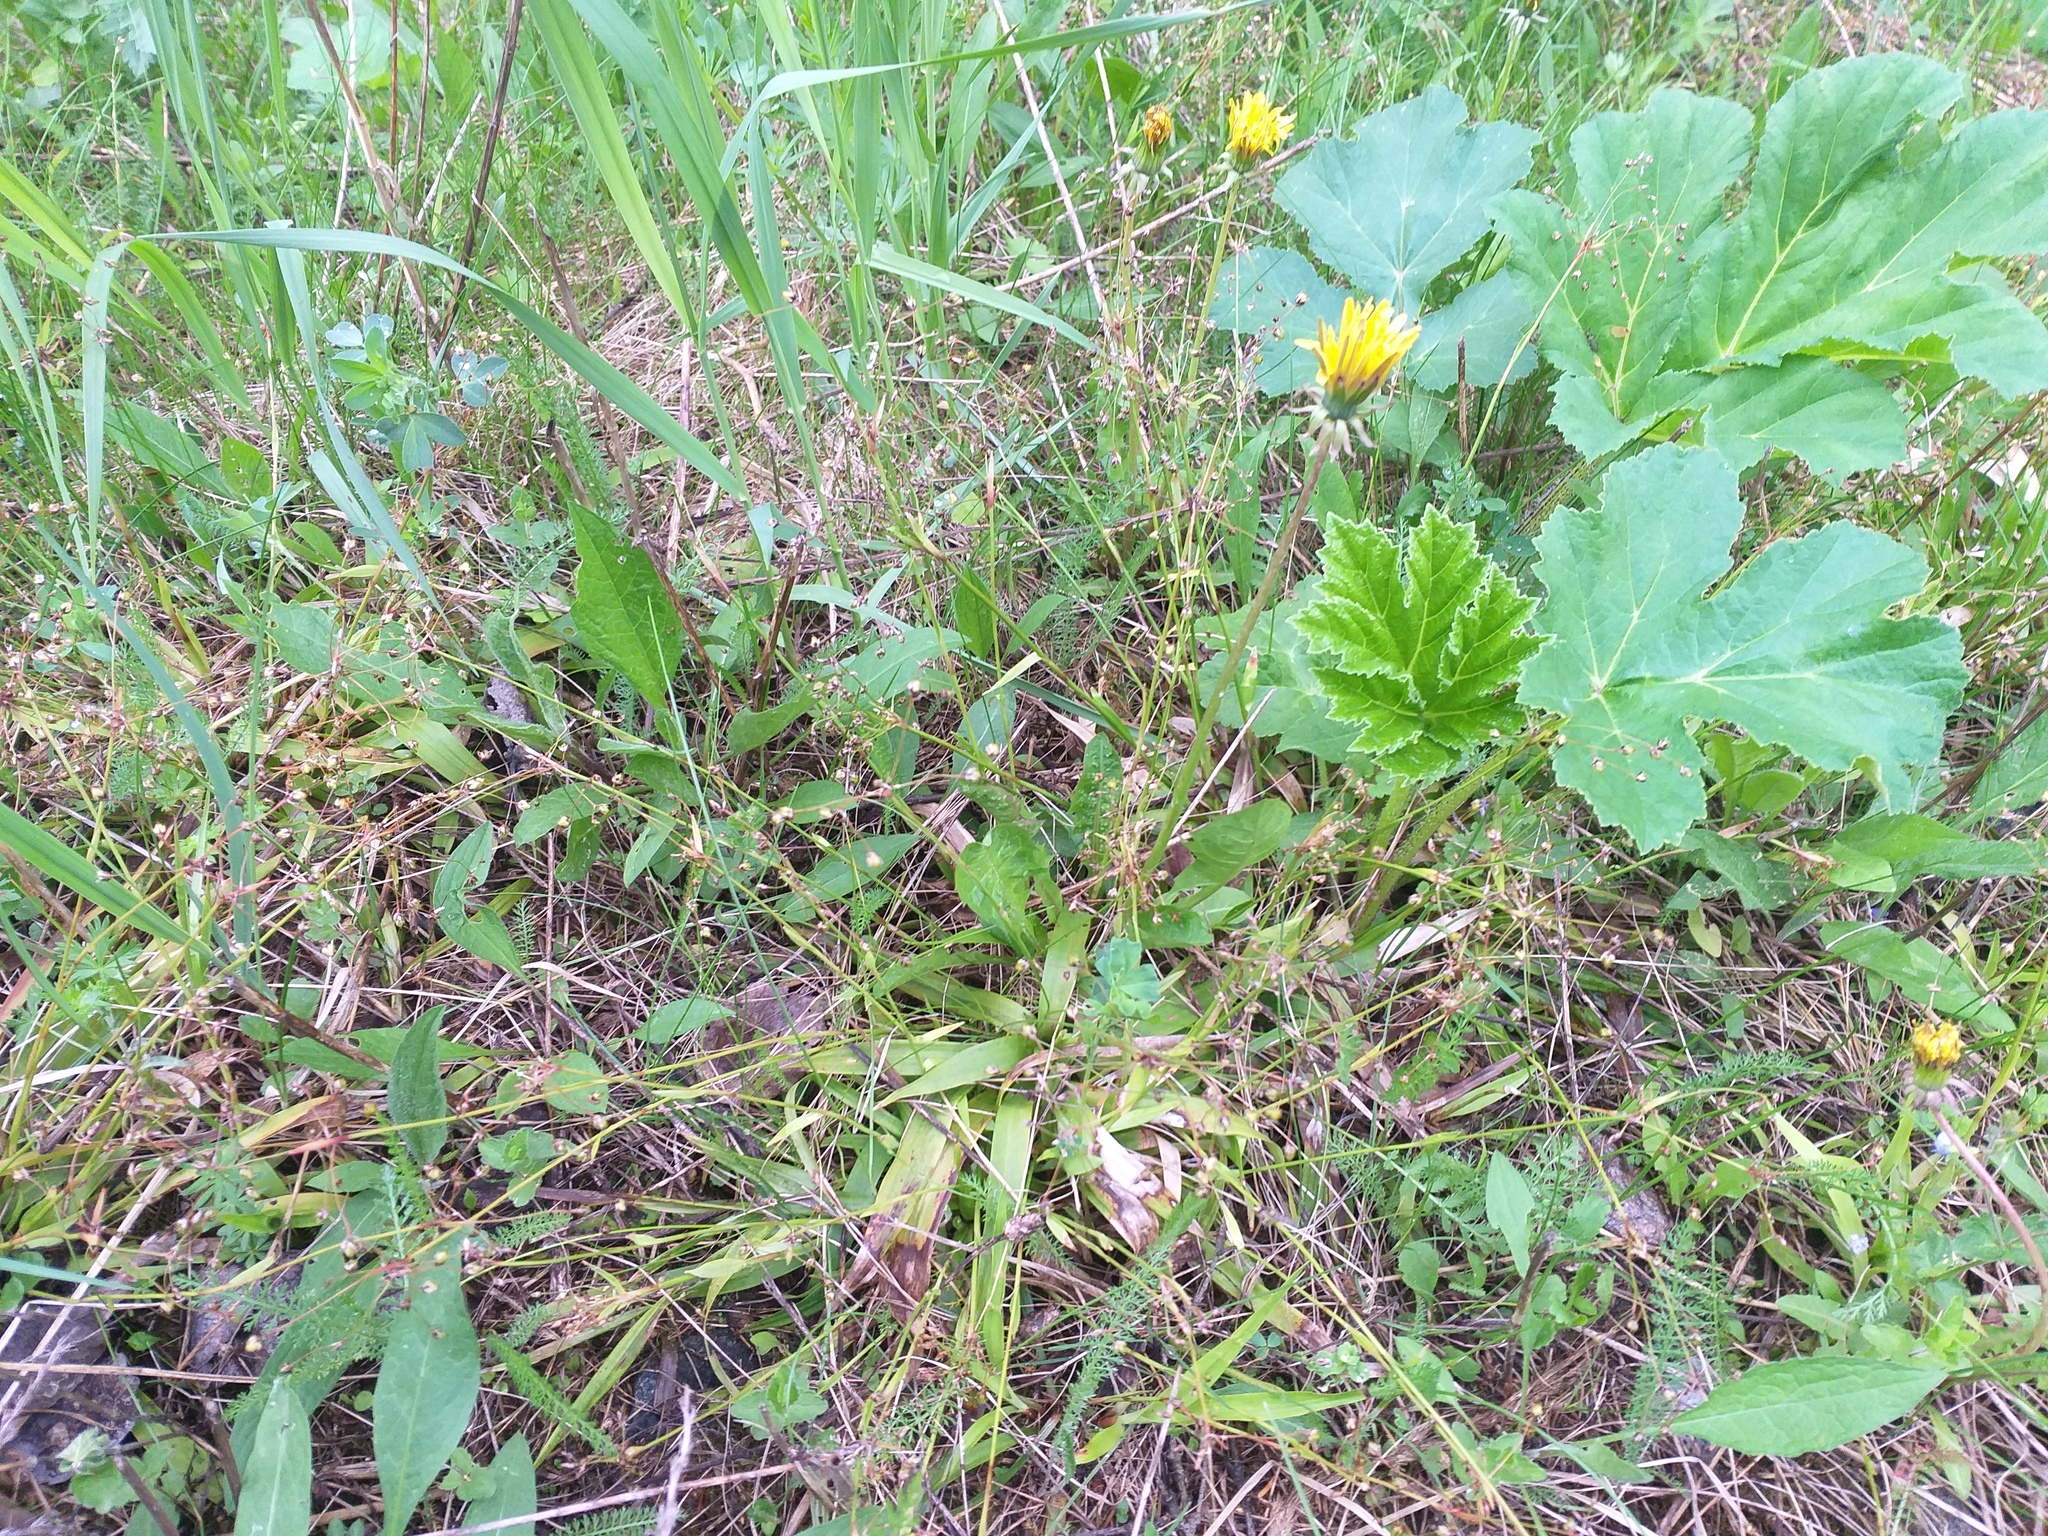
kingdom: Plantae
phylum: Tracheophyta
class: Liliopsida
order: Poales
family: Juncaceae
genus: Luzula
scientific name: Luzula pilosa
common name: Hairy wood-rush
